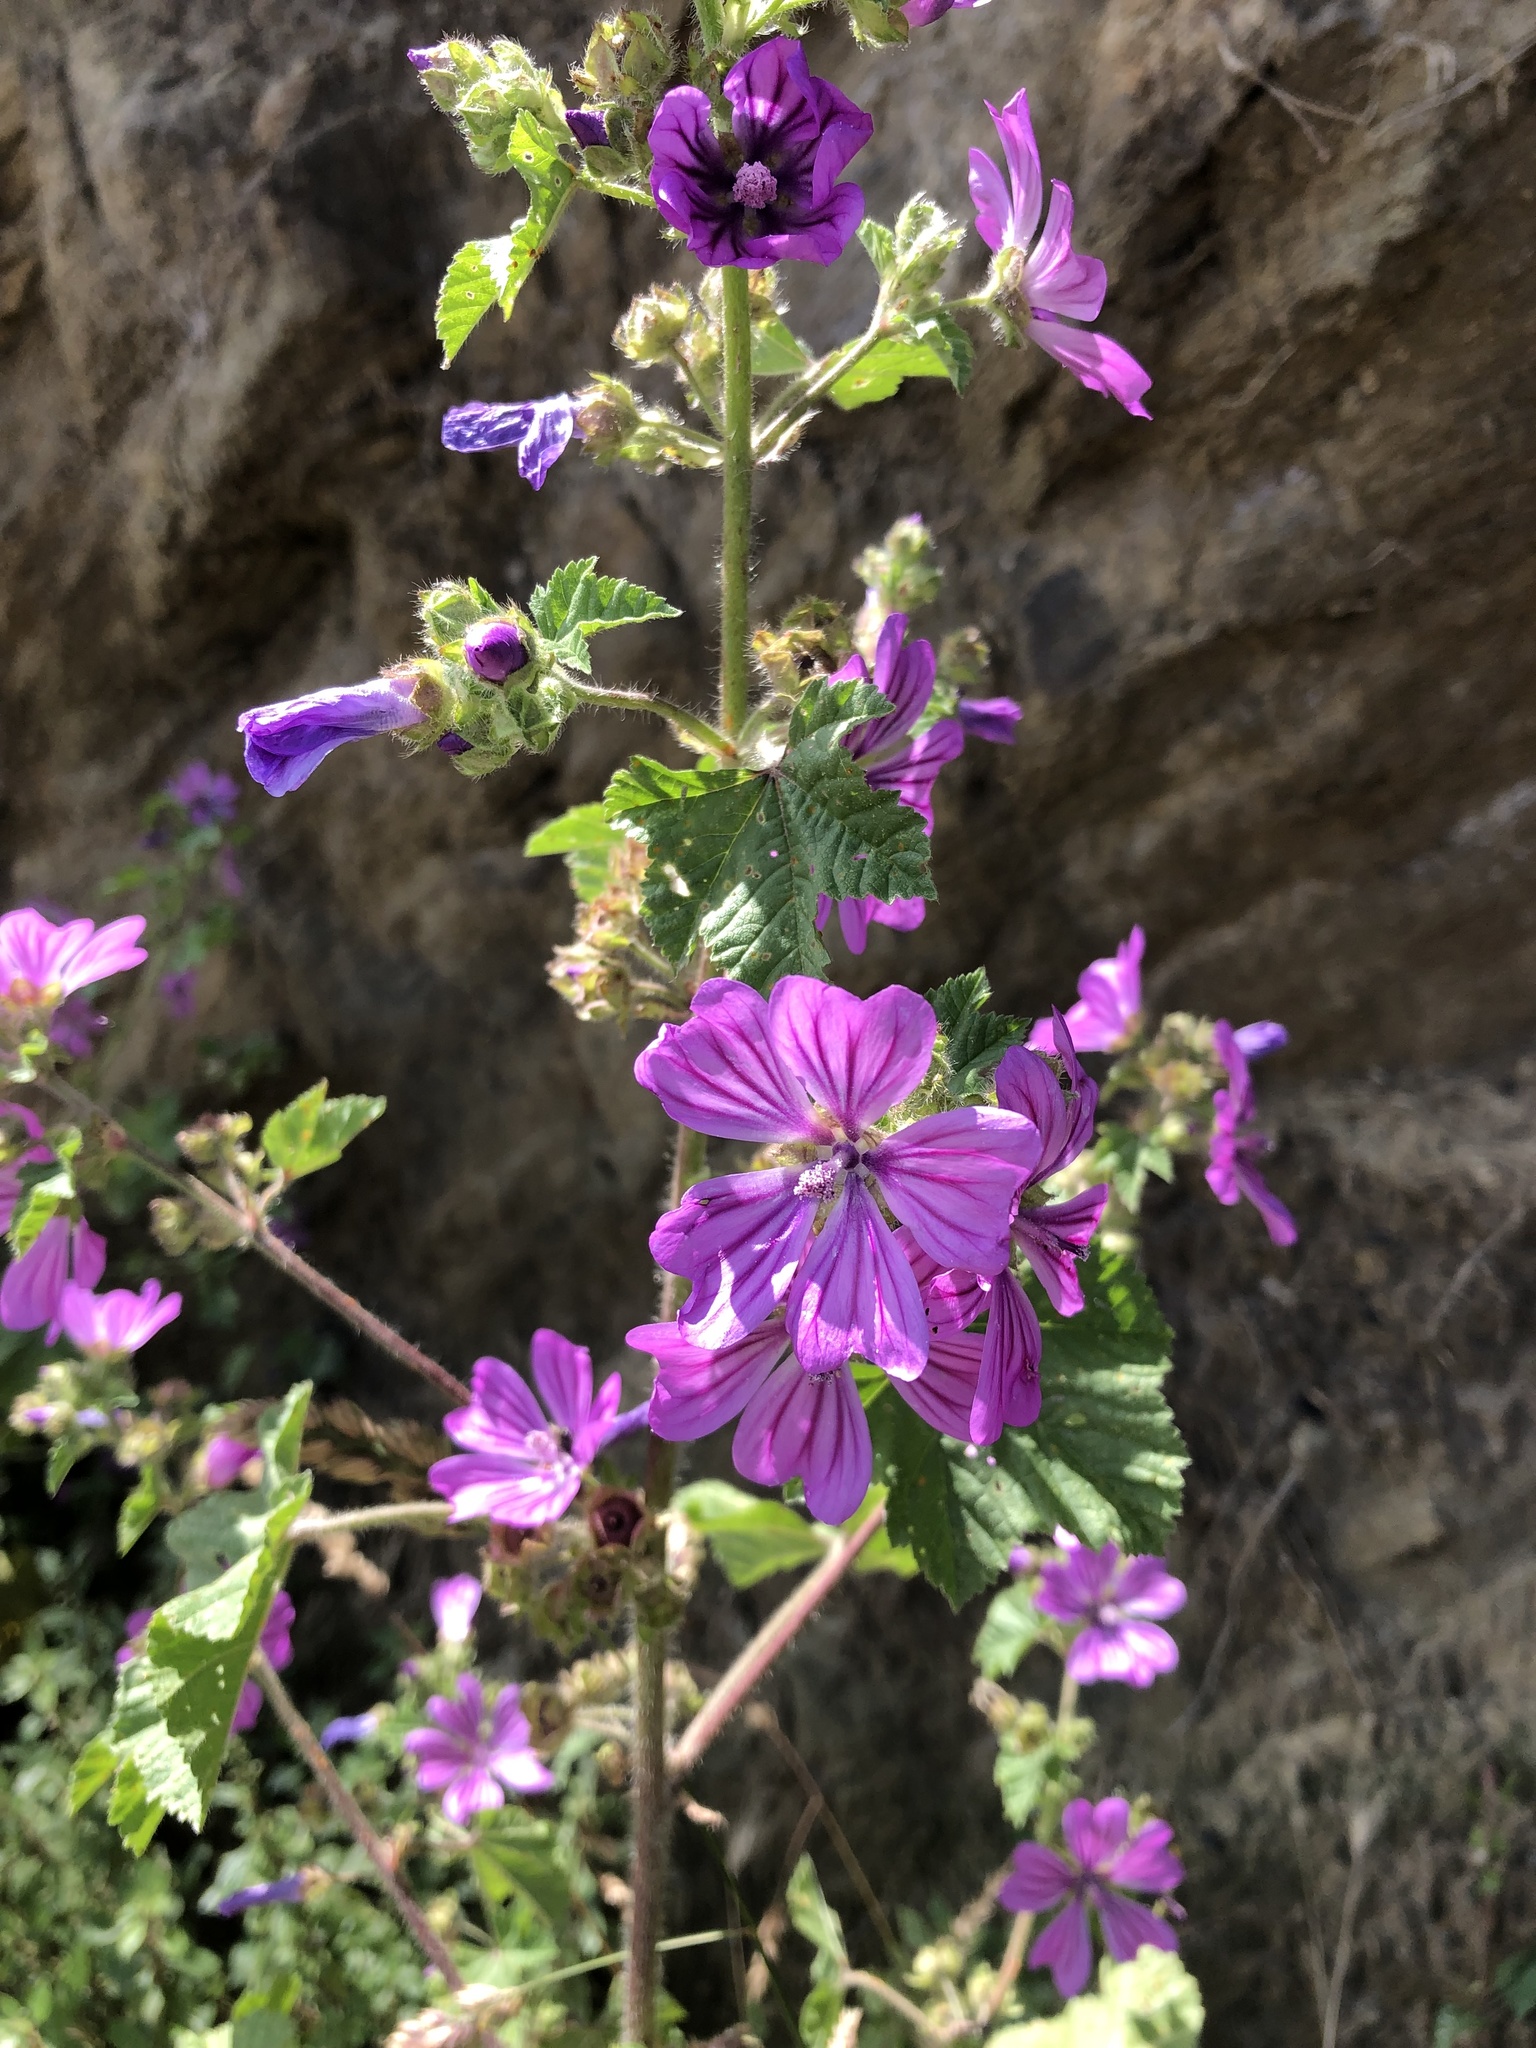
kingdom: Plantae
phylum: Tracheophyta
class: Magnoliopsida
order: Malvales
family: Malvaceae
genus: Malva
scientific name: Malva sylvestris
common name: Common mallow
